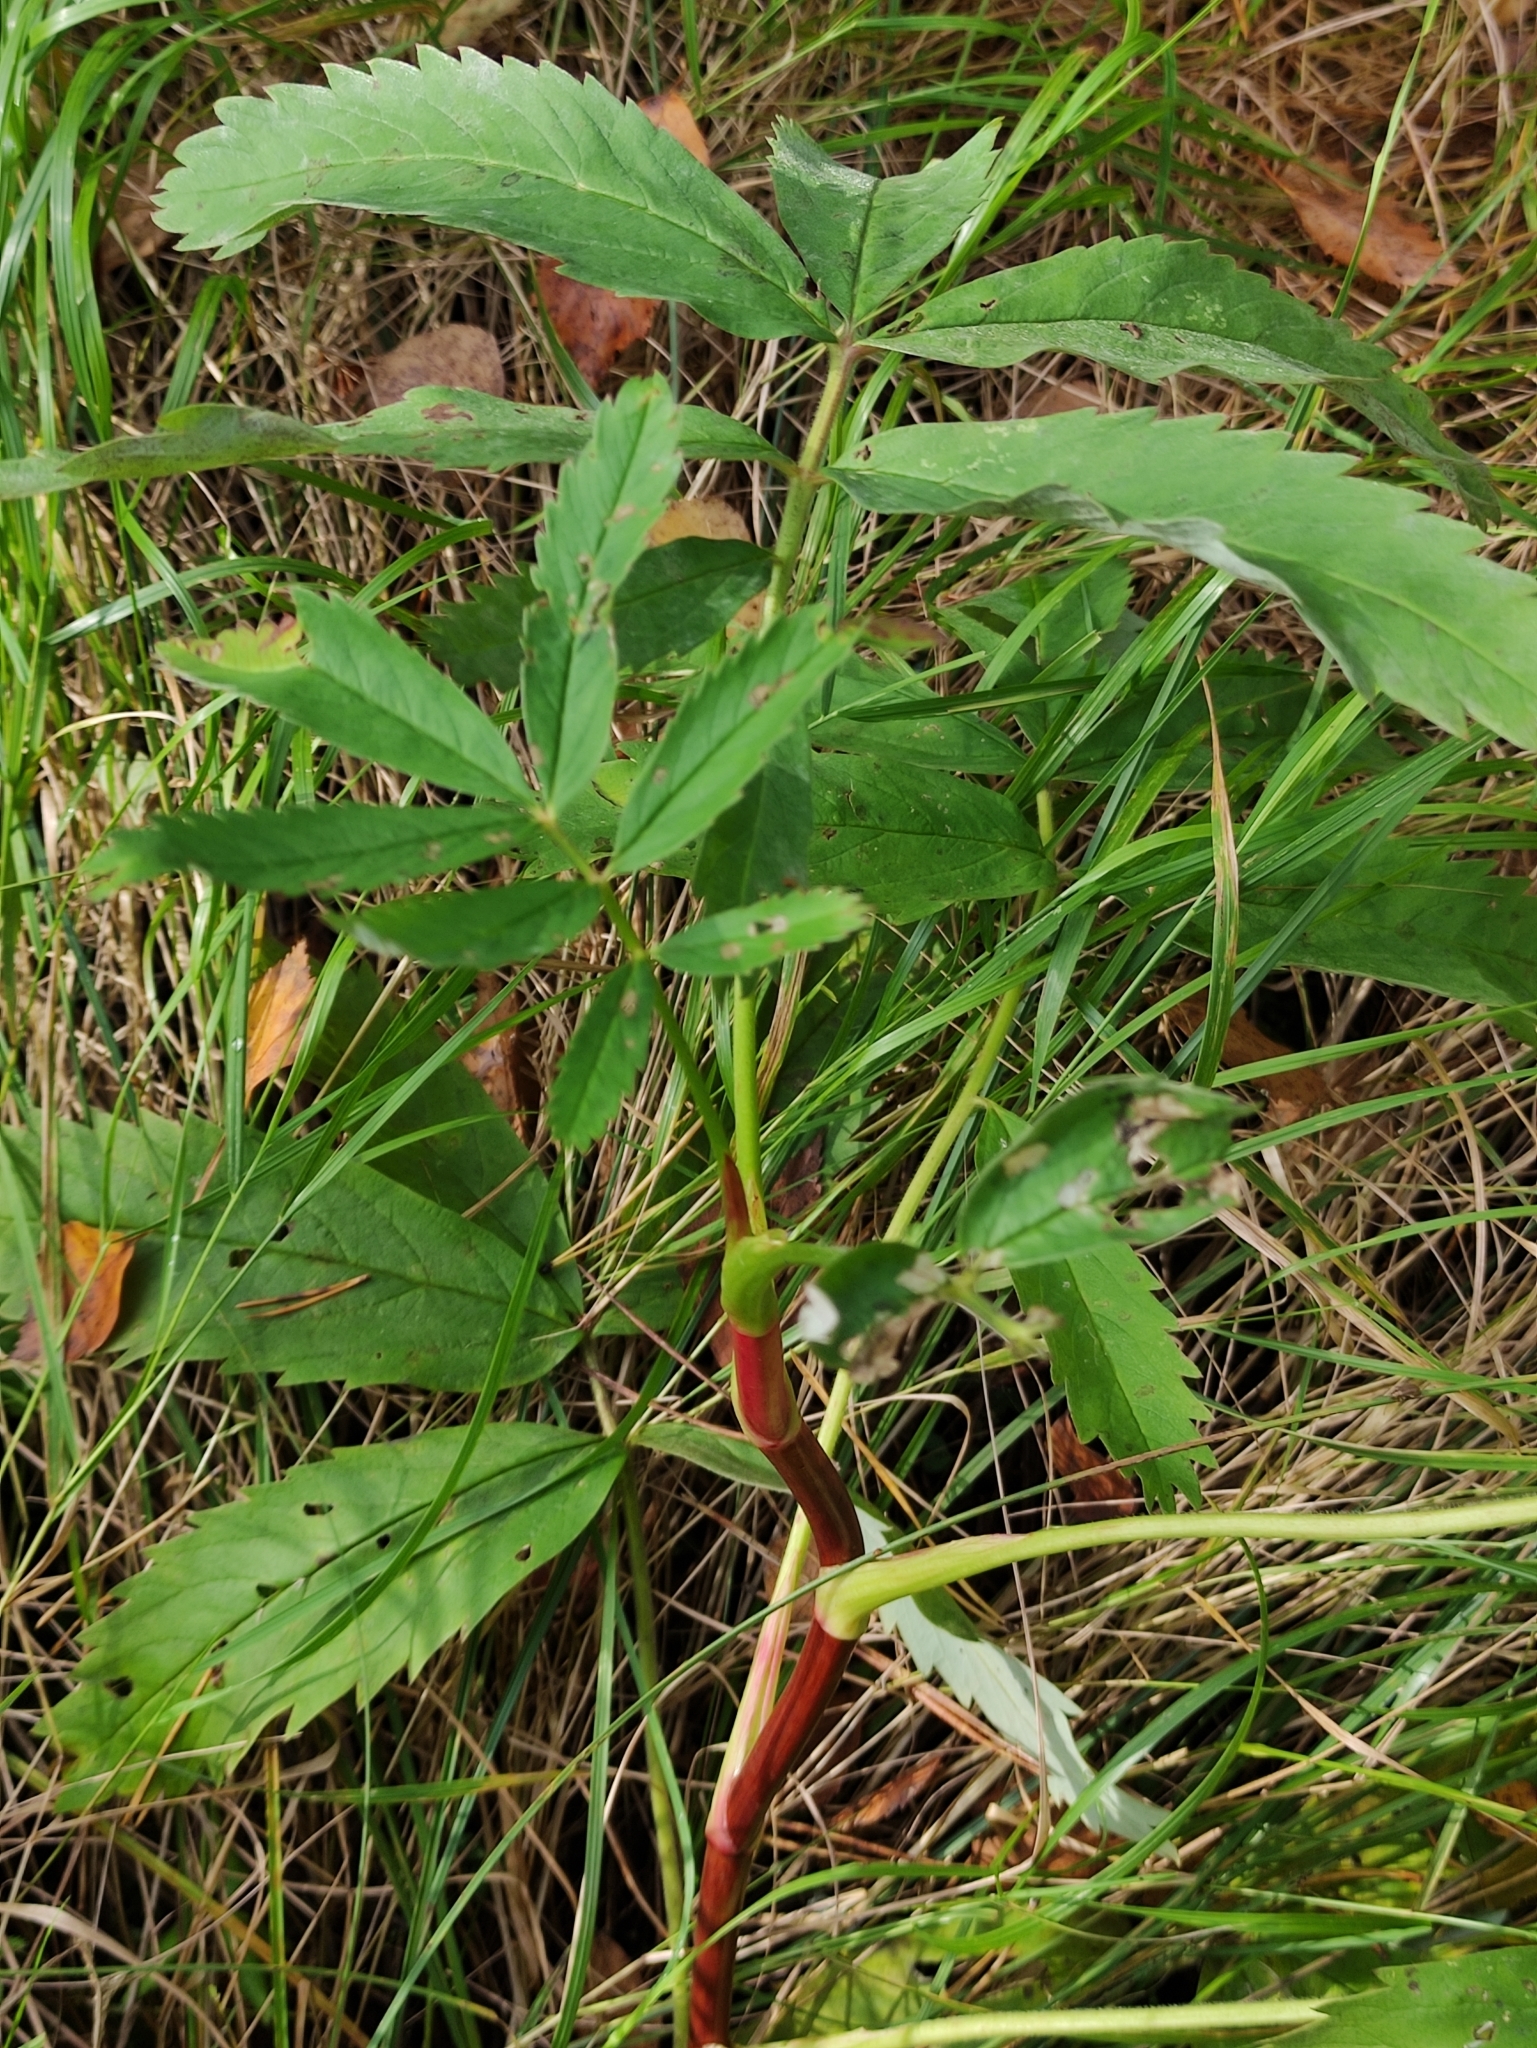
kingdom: Plantae
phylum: Tracheophyta
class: Magnoliopsida
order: Rosales
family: Rosaceae
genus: Comarum
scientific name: Comarum palustre
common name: Marsh cinquefoil
